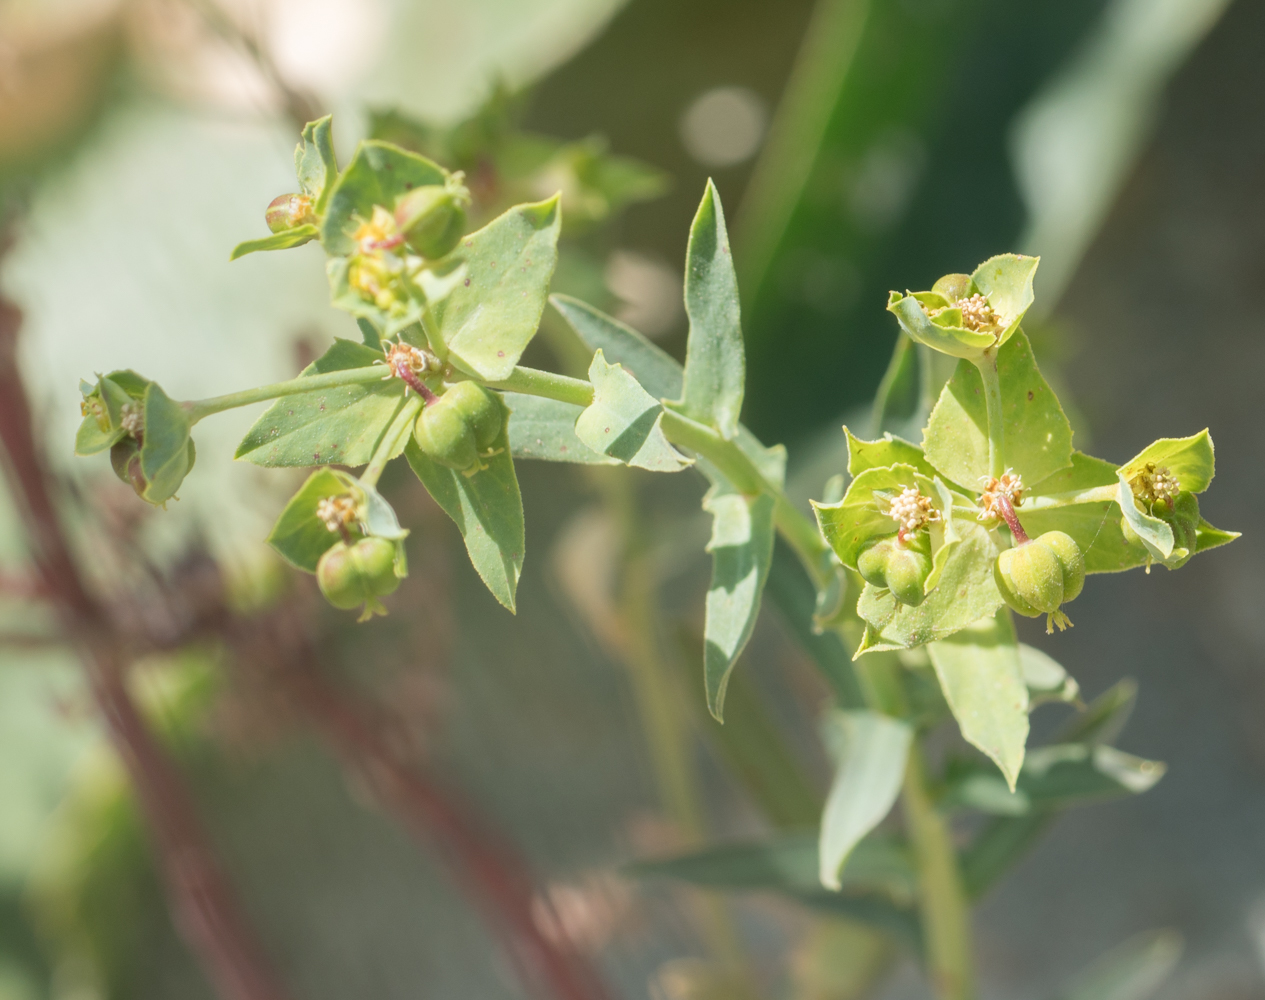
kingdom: Plantae
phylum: Tracheophyta
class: Magnoliopsida
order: Malpighiales
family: Euphorbiaceae
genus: Euphorbia
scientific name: Euphorbia terracina
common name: Geraldton carnation weed
